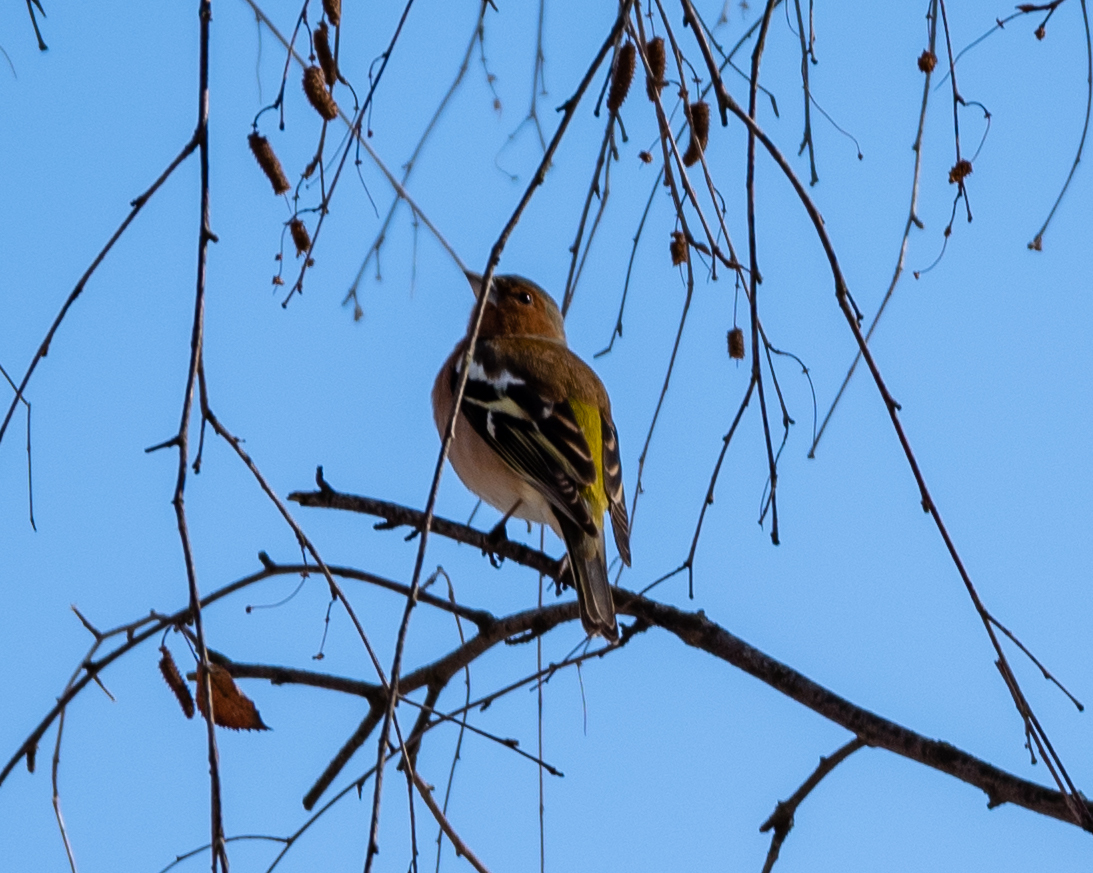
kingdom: Animalia
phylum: Chordata
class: Aves
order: Passeriformes
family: Fringillidae
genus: Fringilla
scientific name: Fringilla coelebs
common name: Common chaffinch
